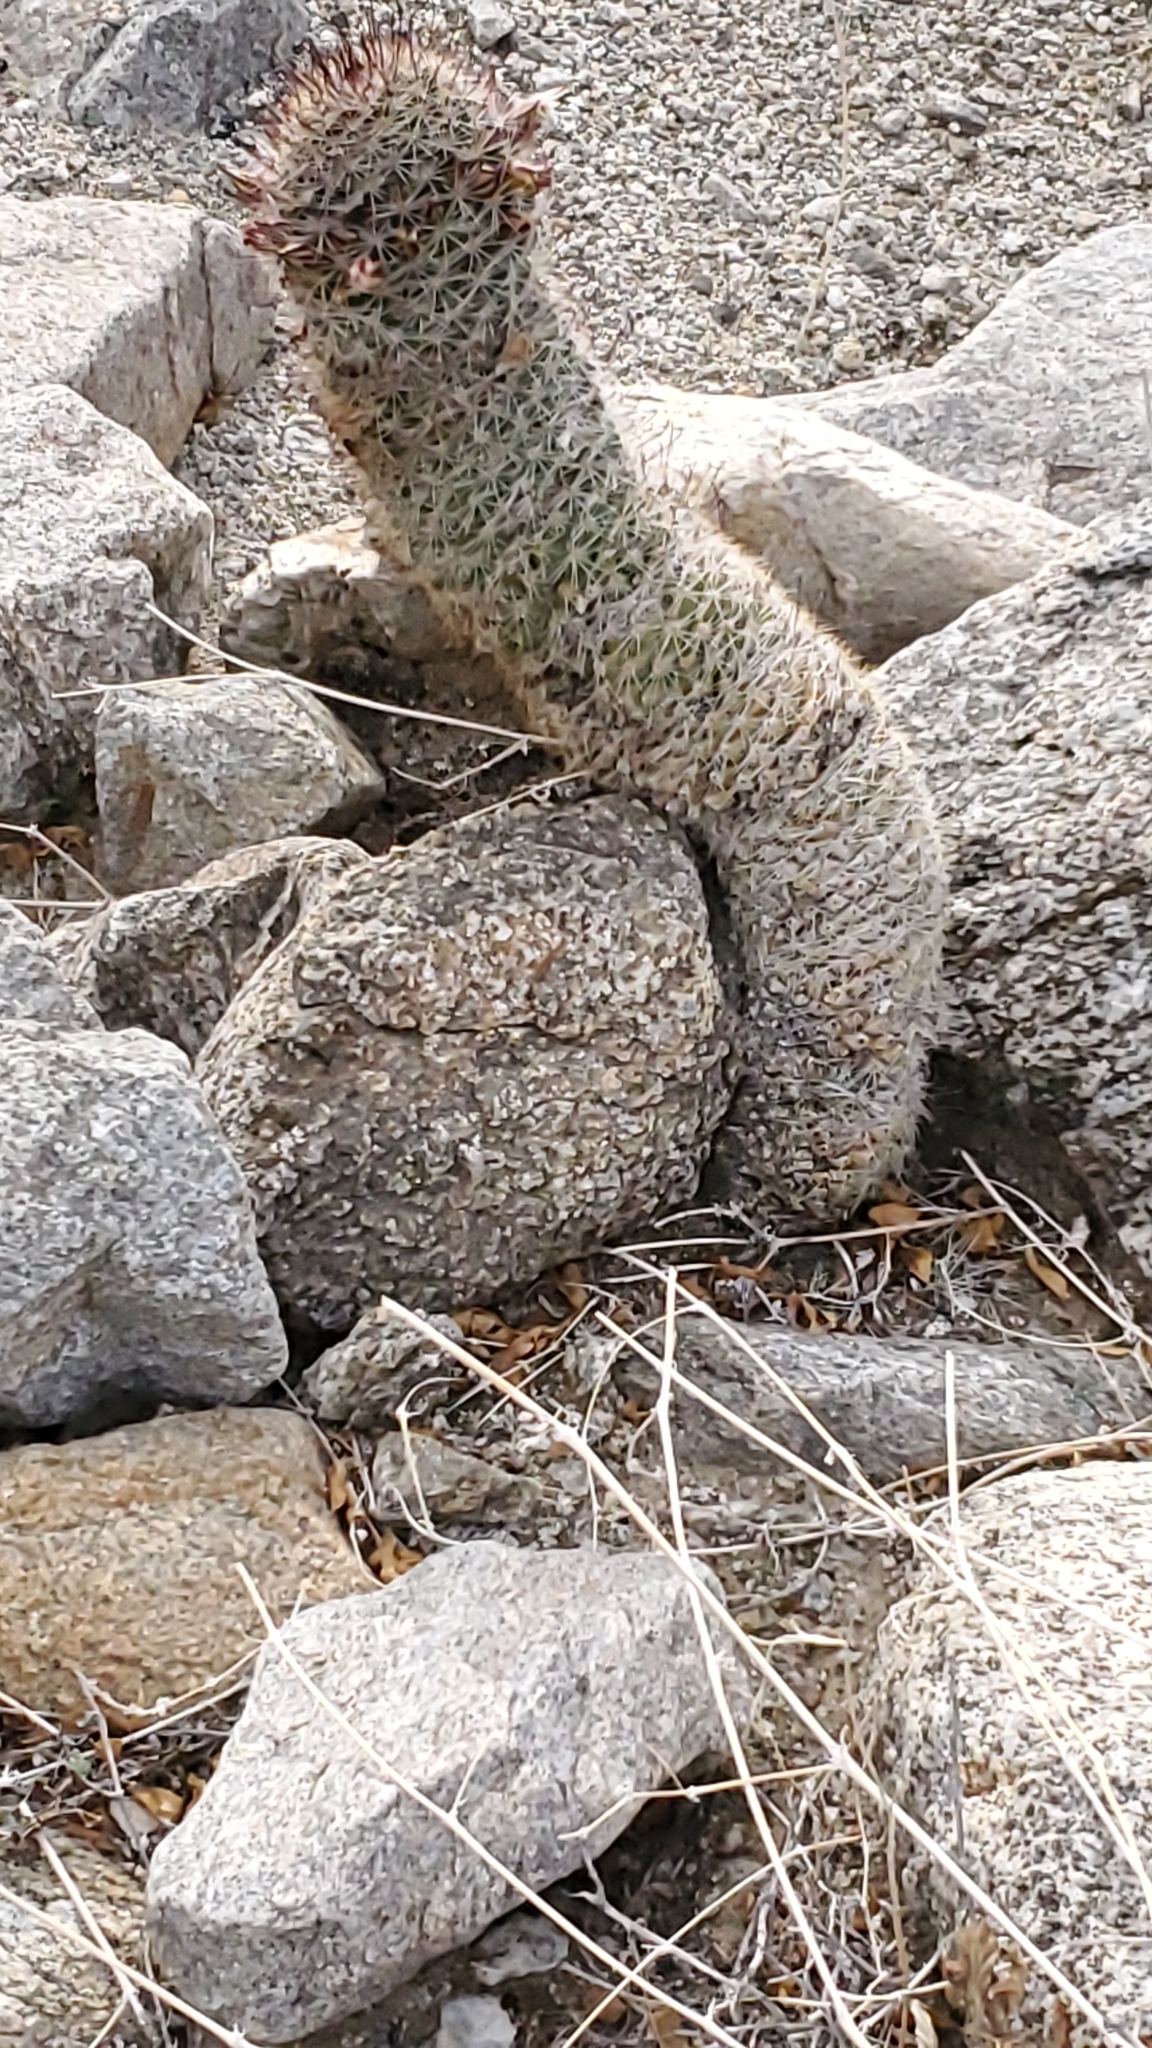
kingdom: Plantae
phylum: Tracheophyta
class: Magnoliopsida
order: Caryophyllales
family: Cactaceae
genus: Cochemiea
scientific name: Cochemiea dioica
